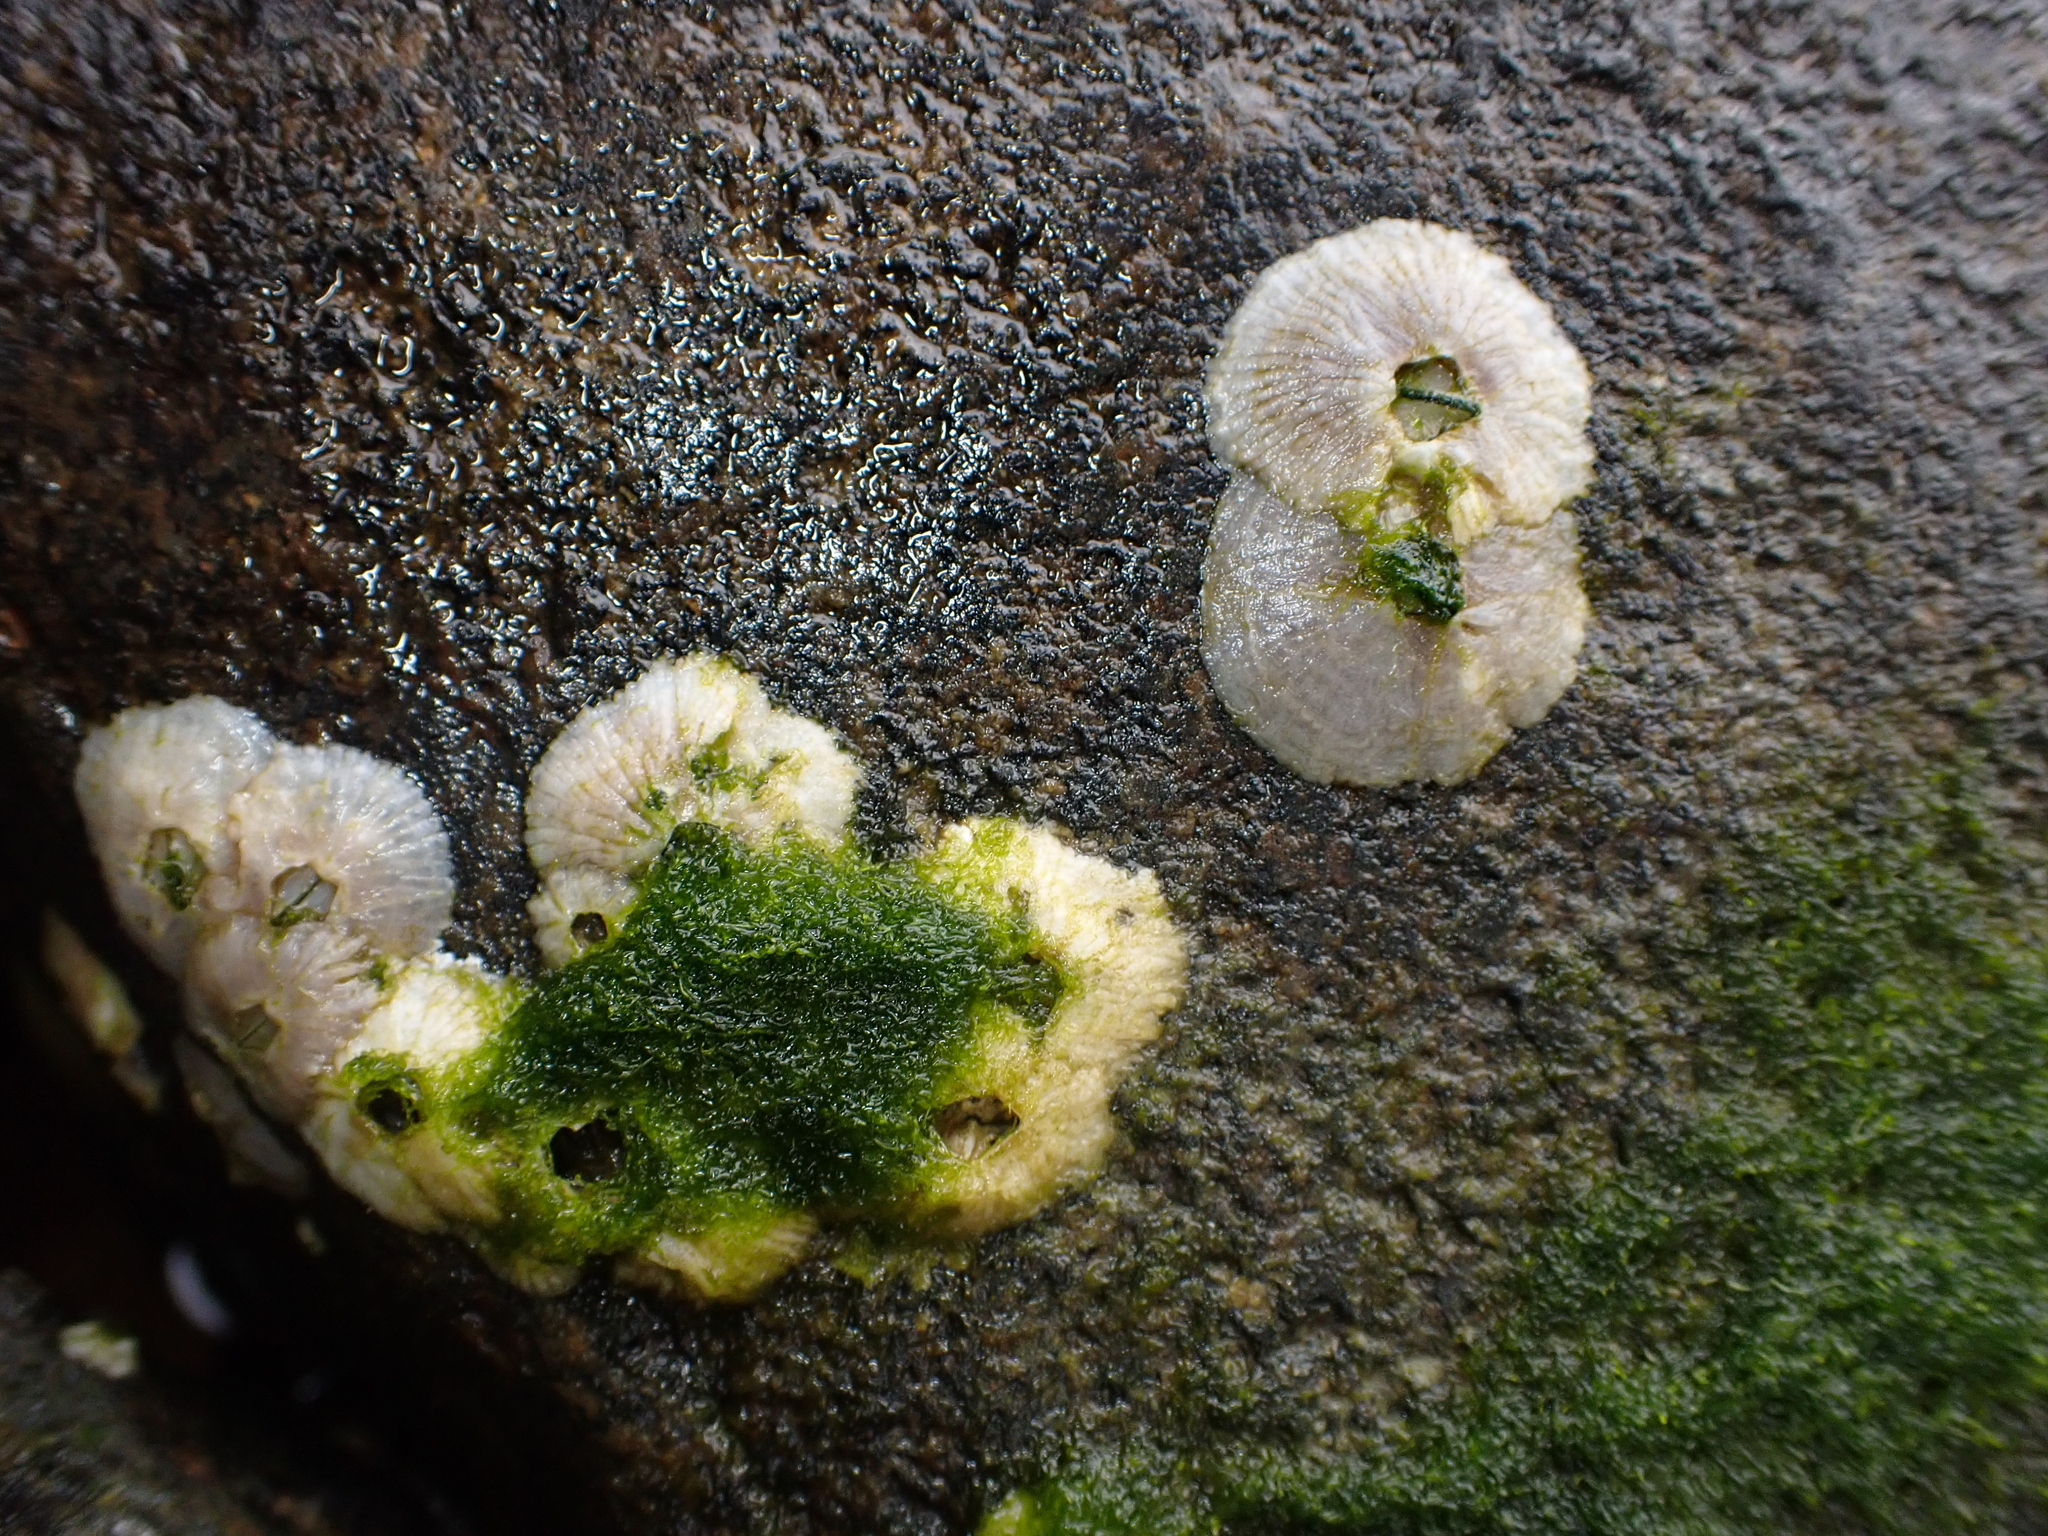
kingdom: Animalia
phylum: Arthropoda
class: Maxillopoda
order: Sessilia
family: Tetraclitidae
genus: Tetraclitella
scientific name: Tetraclitella depressa
